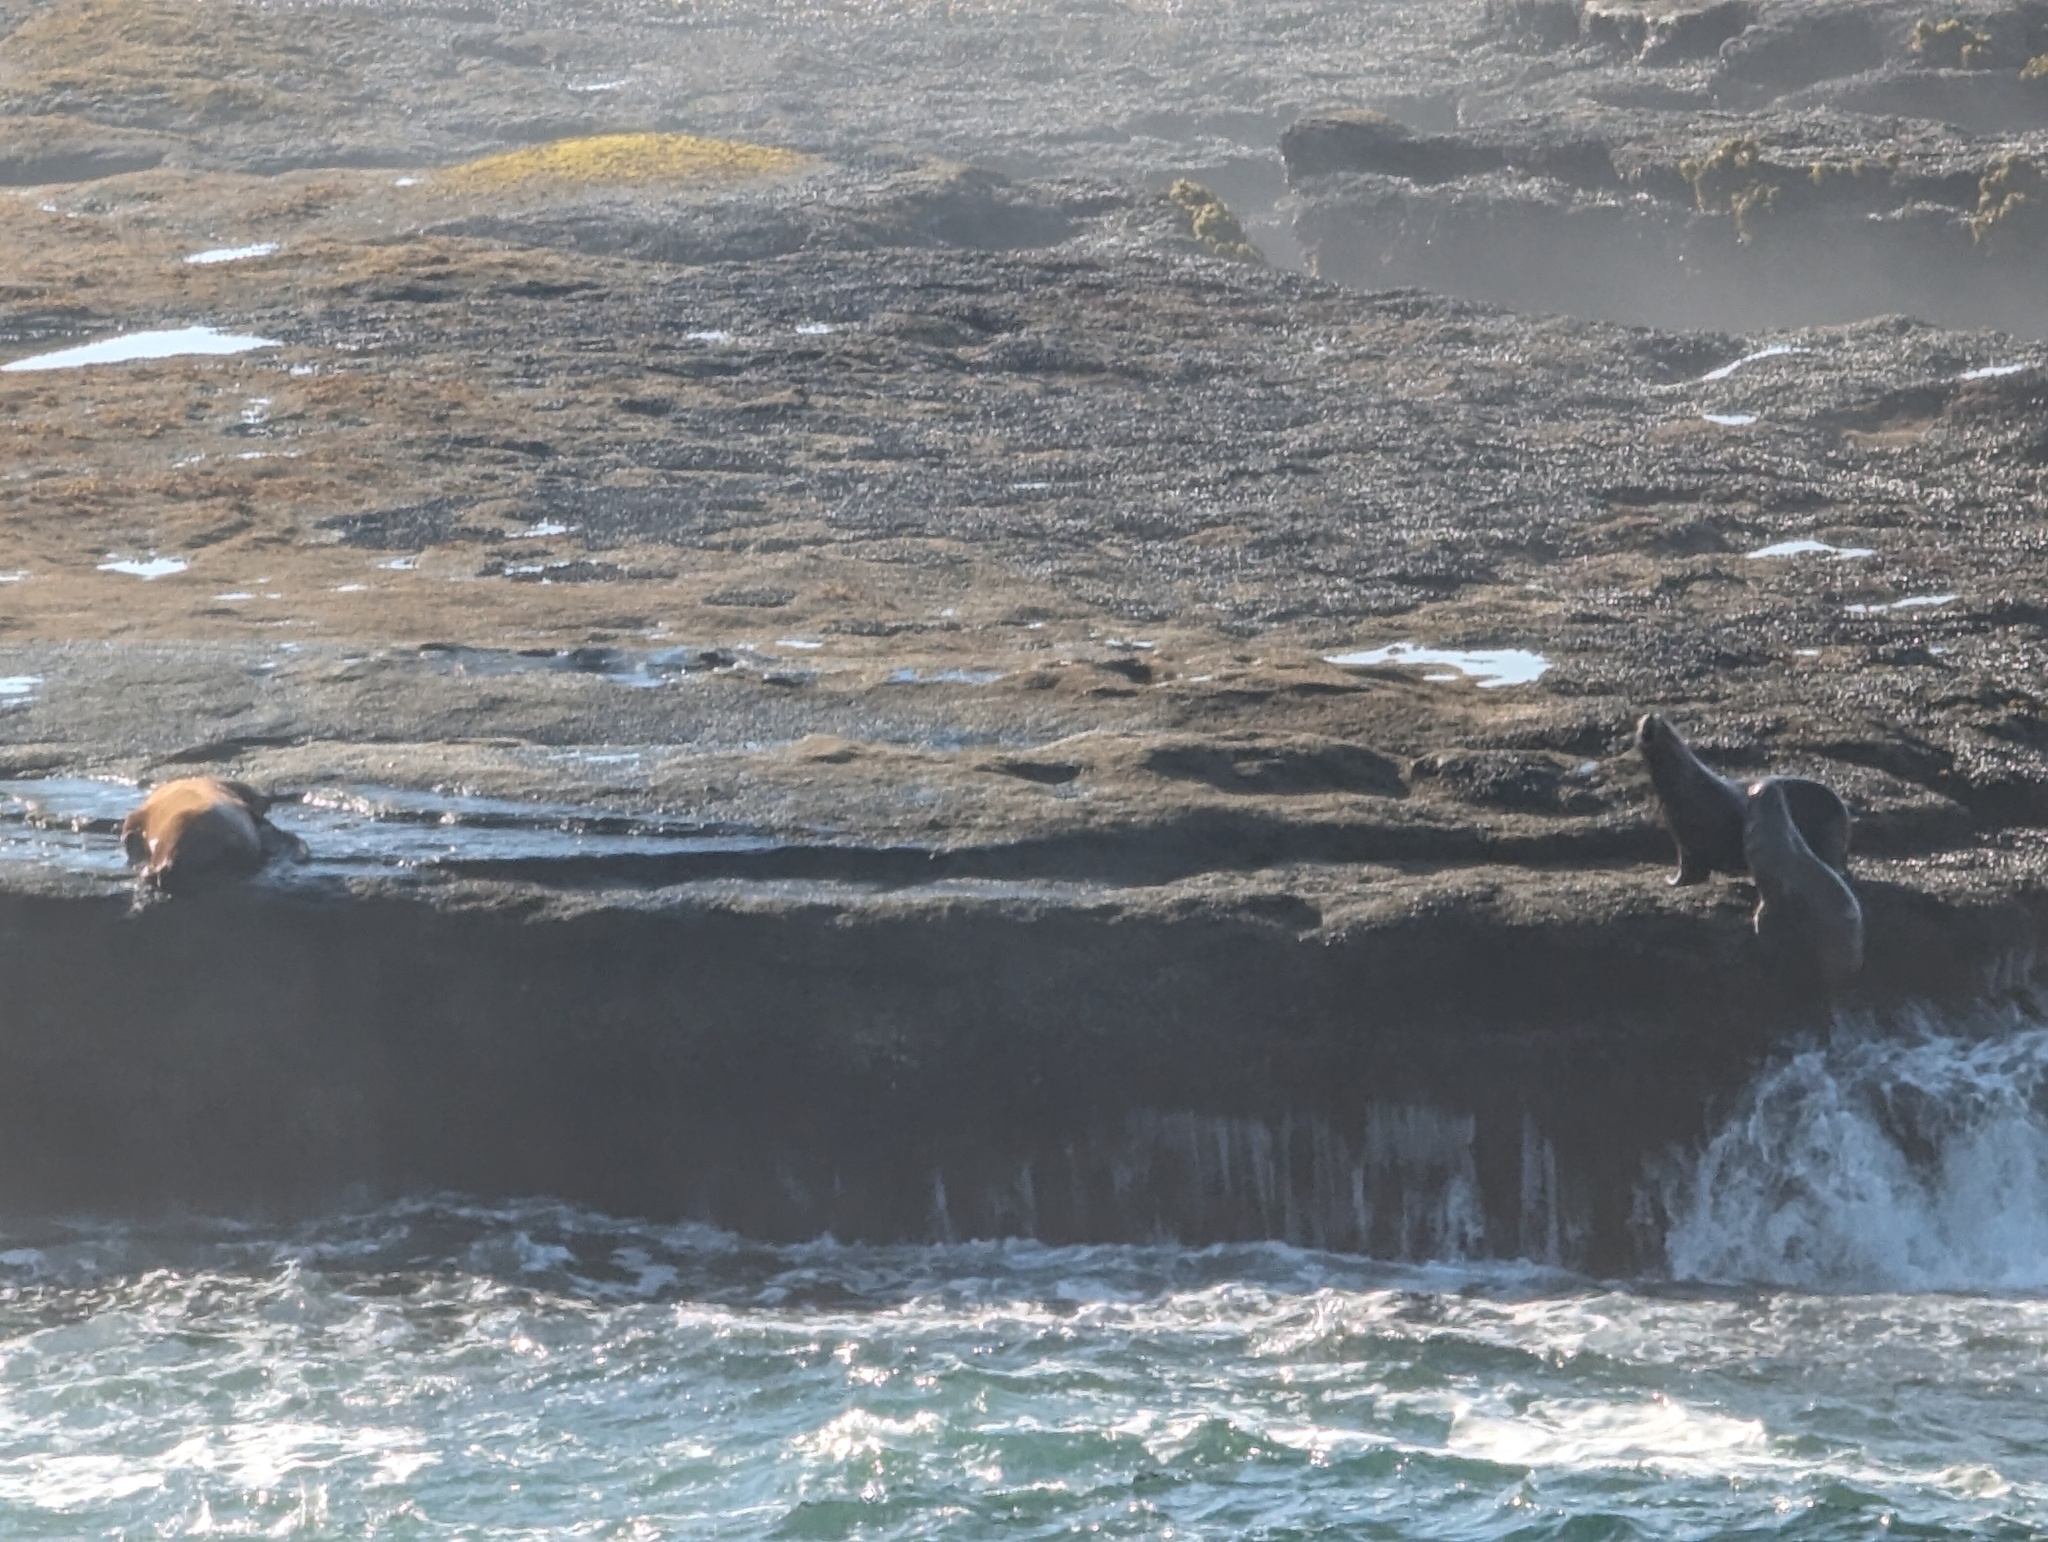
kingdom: Animalia
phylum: Chordata
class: Mammalia
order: Carnivora
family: Otariidae
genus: Eumetopias
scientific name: Eumetopias jubatus
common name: Steller sea lion
